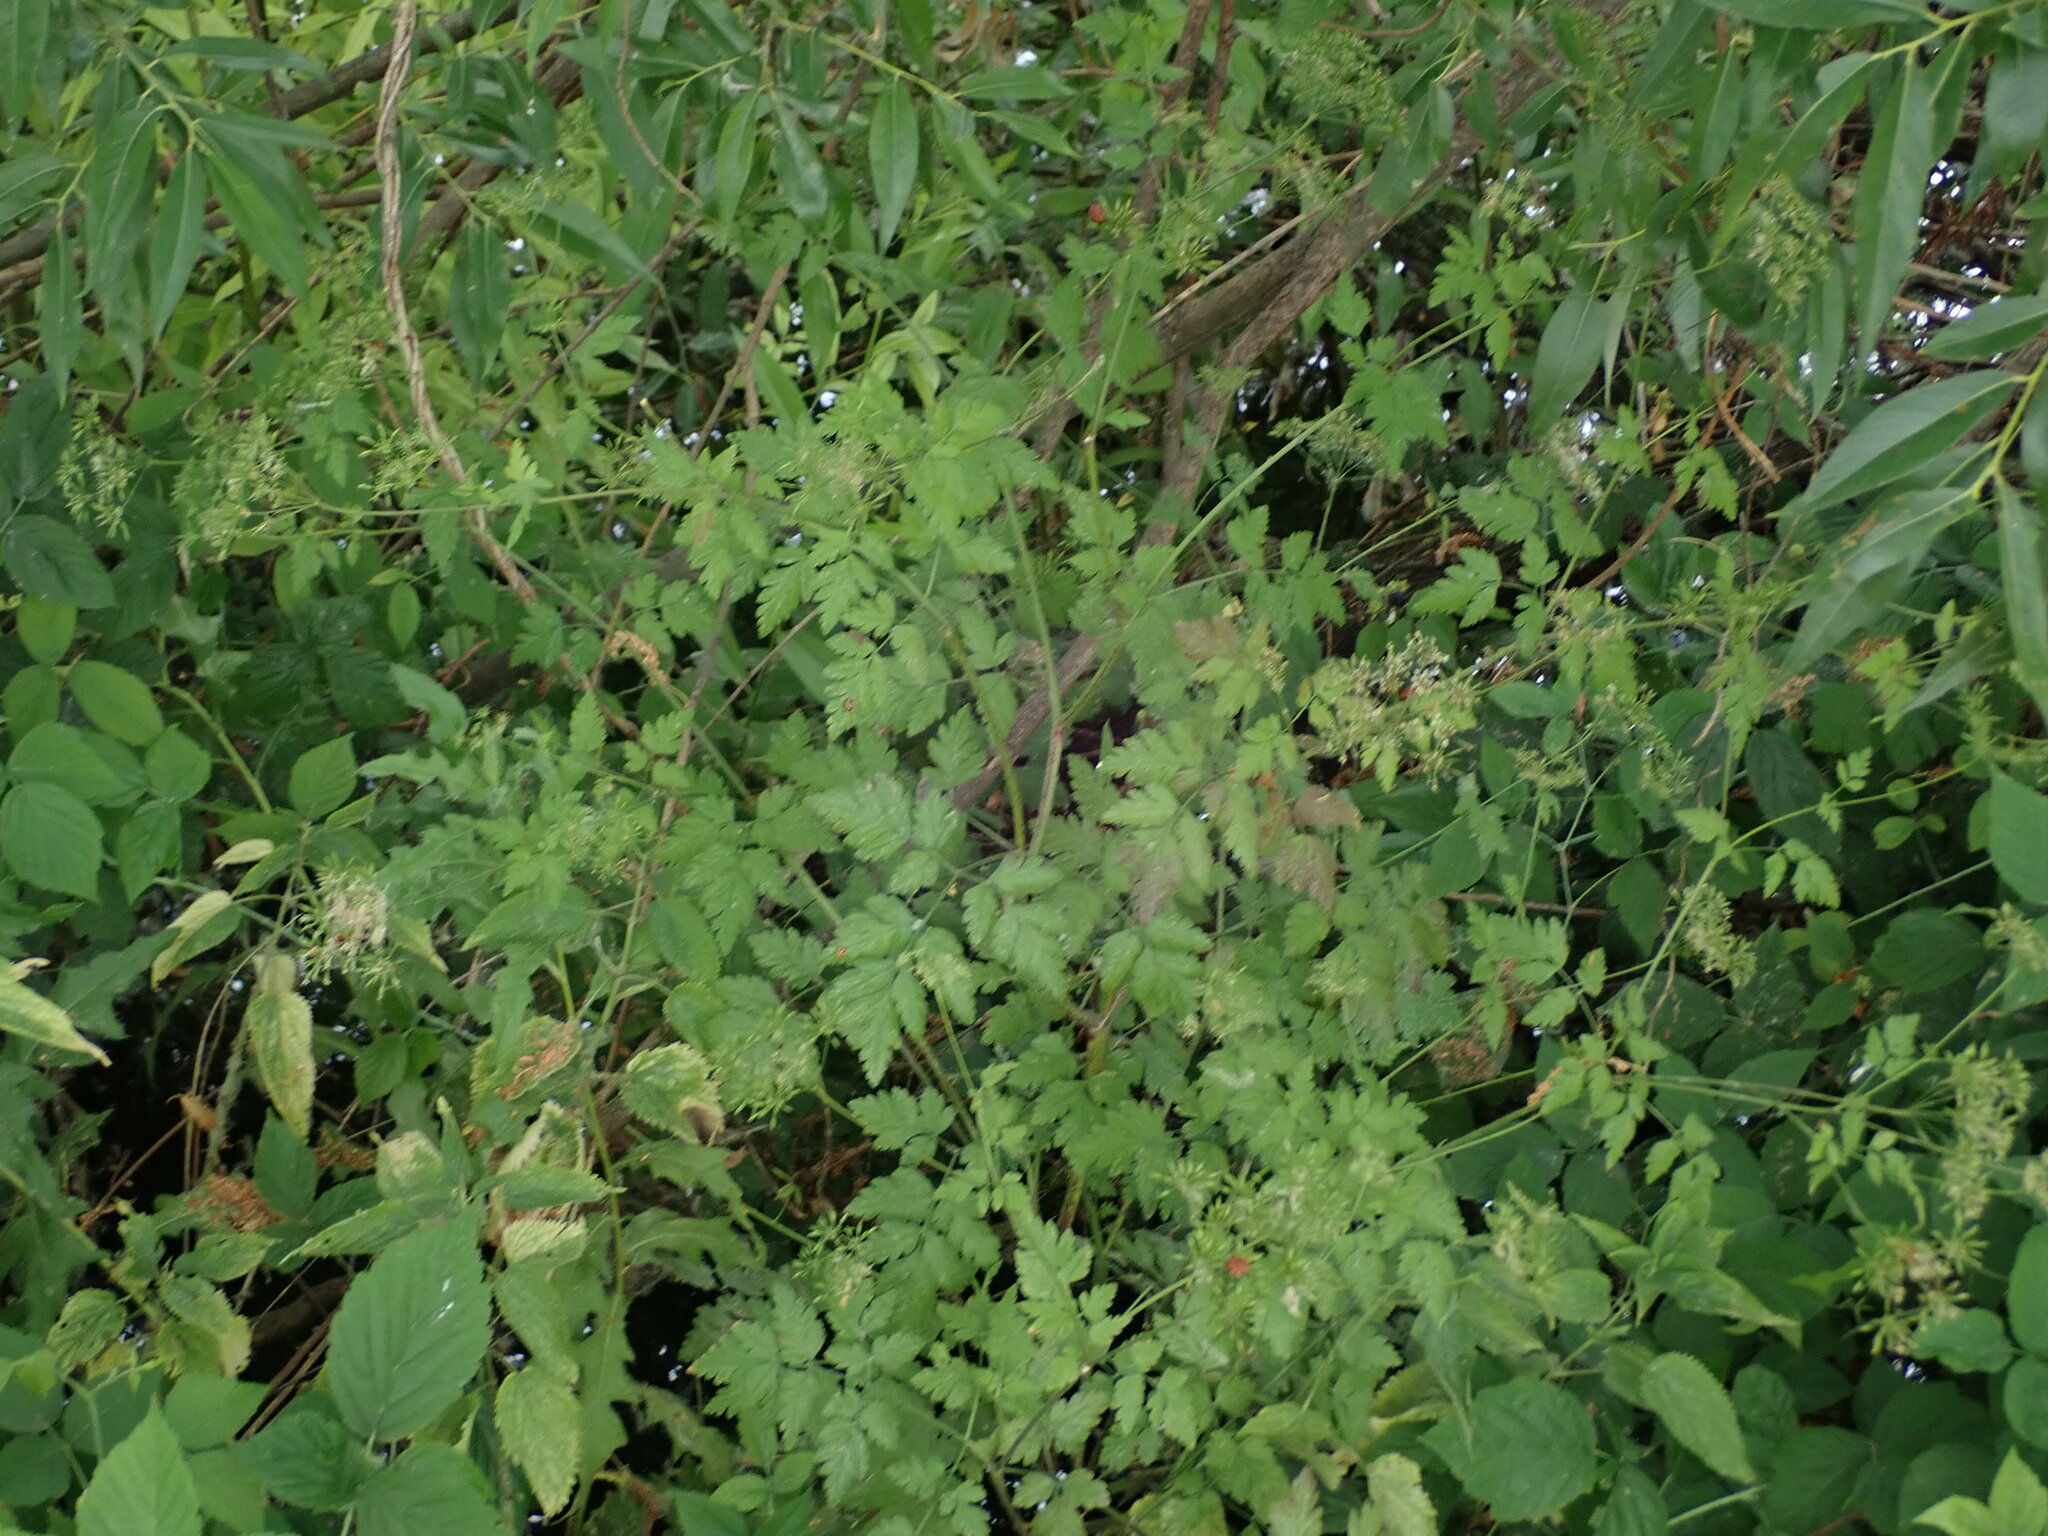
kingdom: Plantae
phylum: Tracheophyta
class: Magnoliopsida
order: Apiales
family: Apiaceae
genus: Chaerophyllum
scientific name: Chaerophyllum temulum
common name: Rough chervil
